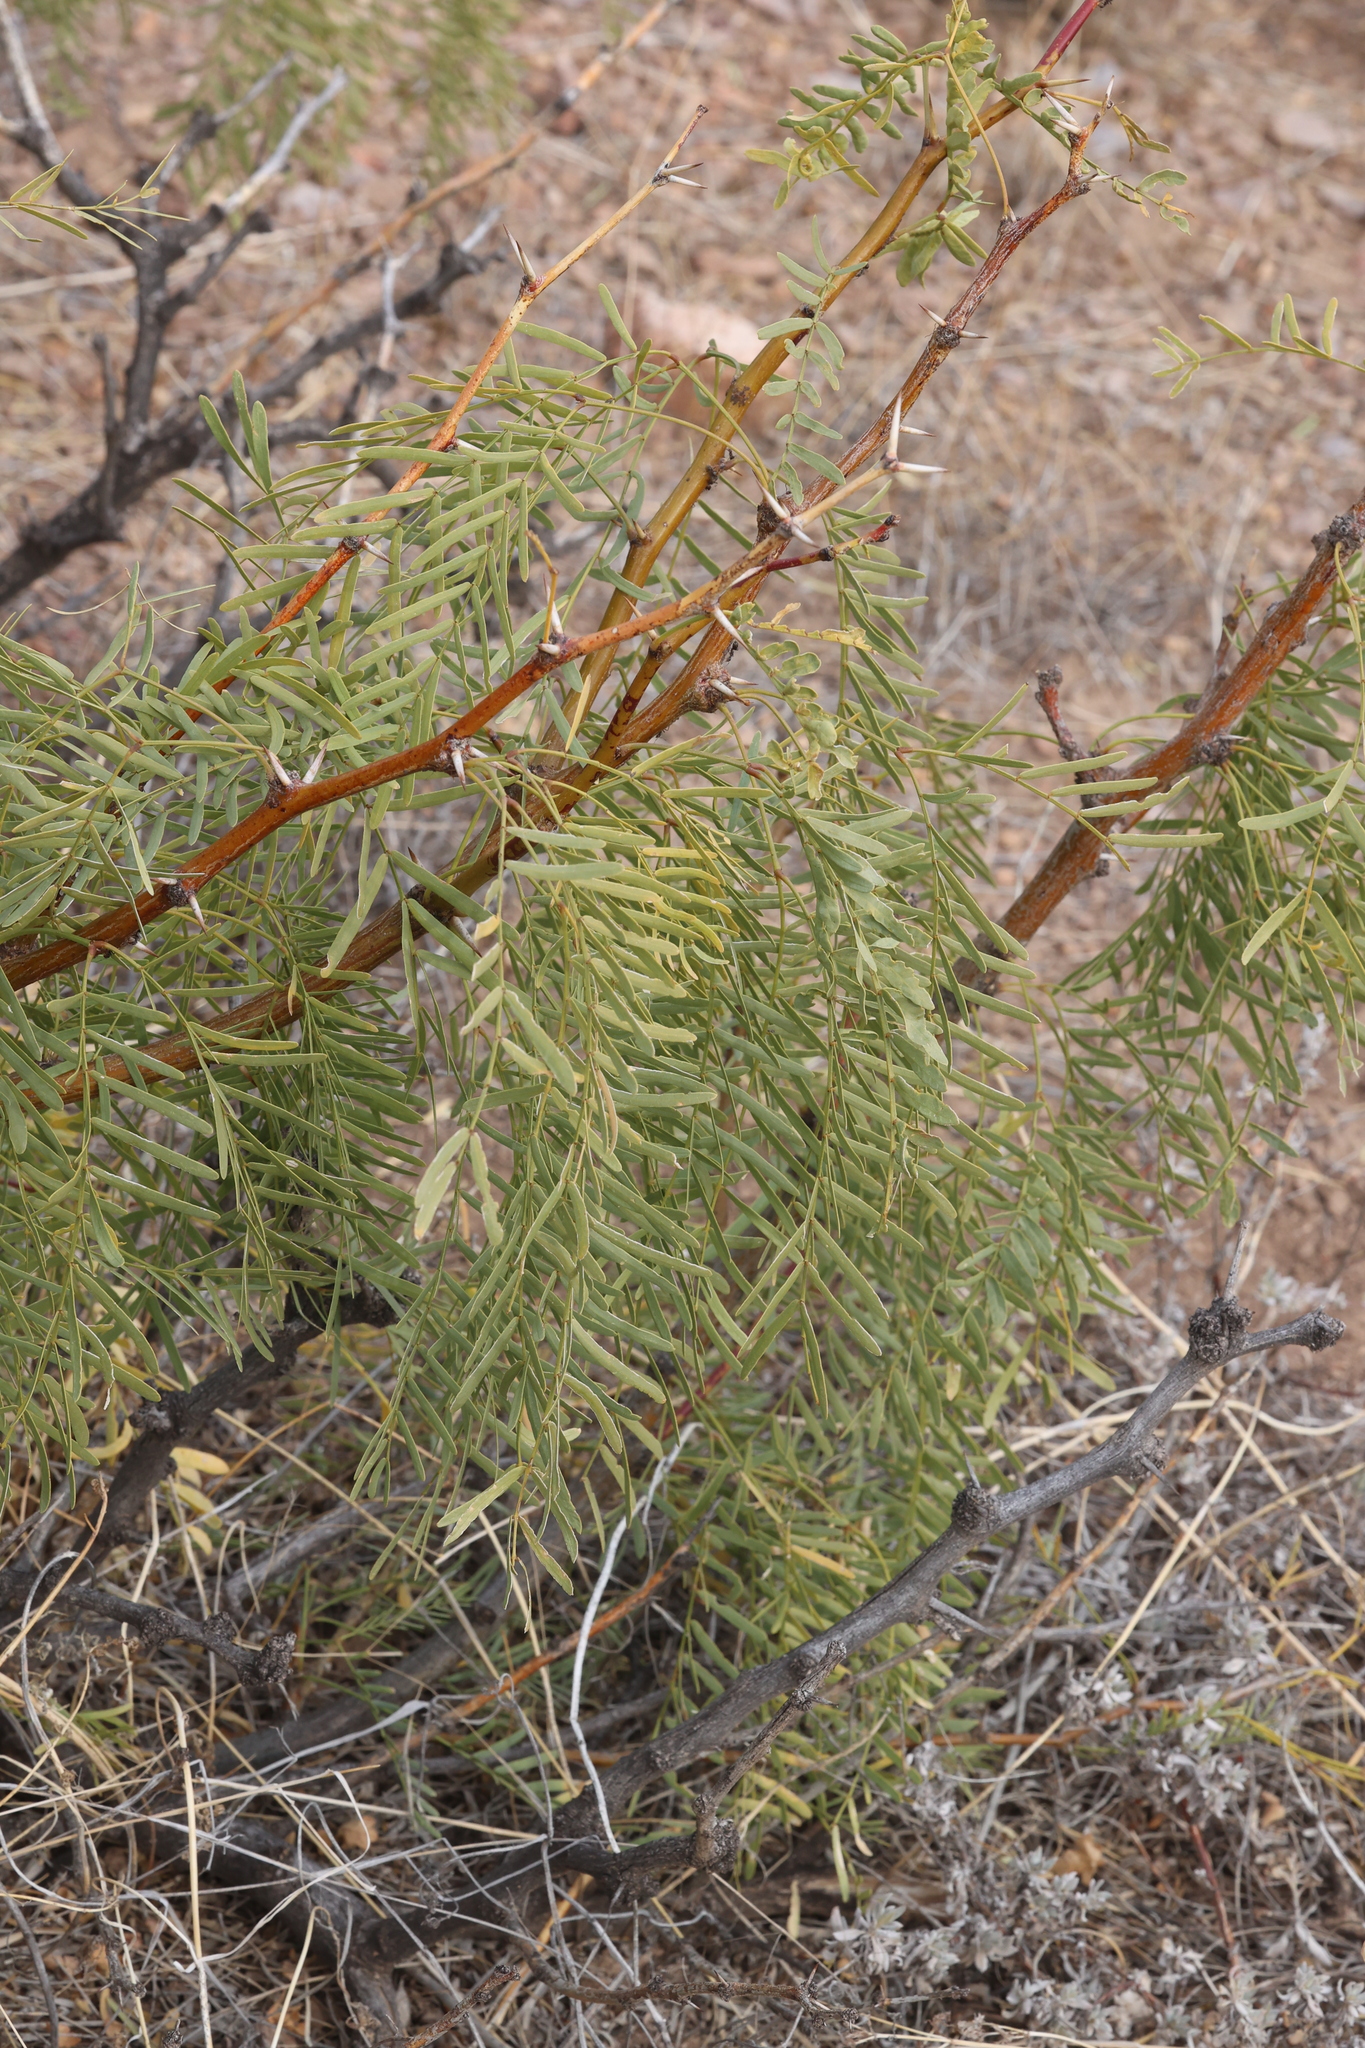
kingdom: Plantae
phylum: Tracheophyta
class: Magnoliopsida
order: Fabales
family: Fabaceae
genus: Prosopis
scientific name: Prosopis glandulosa
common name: Honey mesquite
